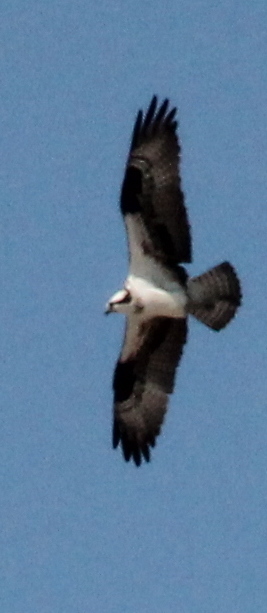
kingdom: Animalia
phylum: Chordata
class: Aves
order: Accipitriformes
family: Pandionidae
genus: Pandion
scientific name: Pandion haliaetus
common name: Osprey
